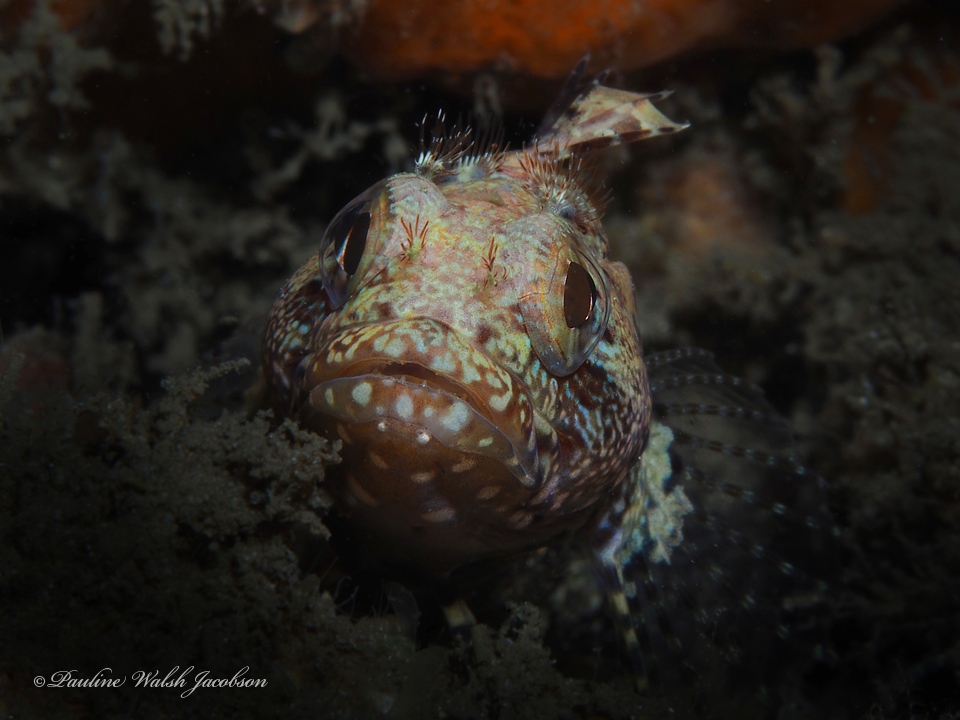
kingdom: Animalia
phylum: Chordata
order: Perciformes
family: Labrisomidae
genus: Gobioclinus
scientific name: Gobioclinus kalisherae
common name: Downy blenny
